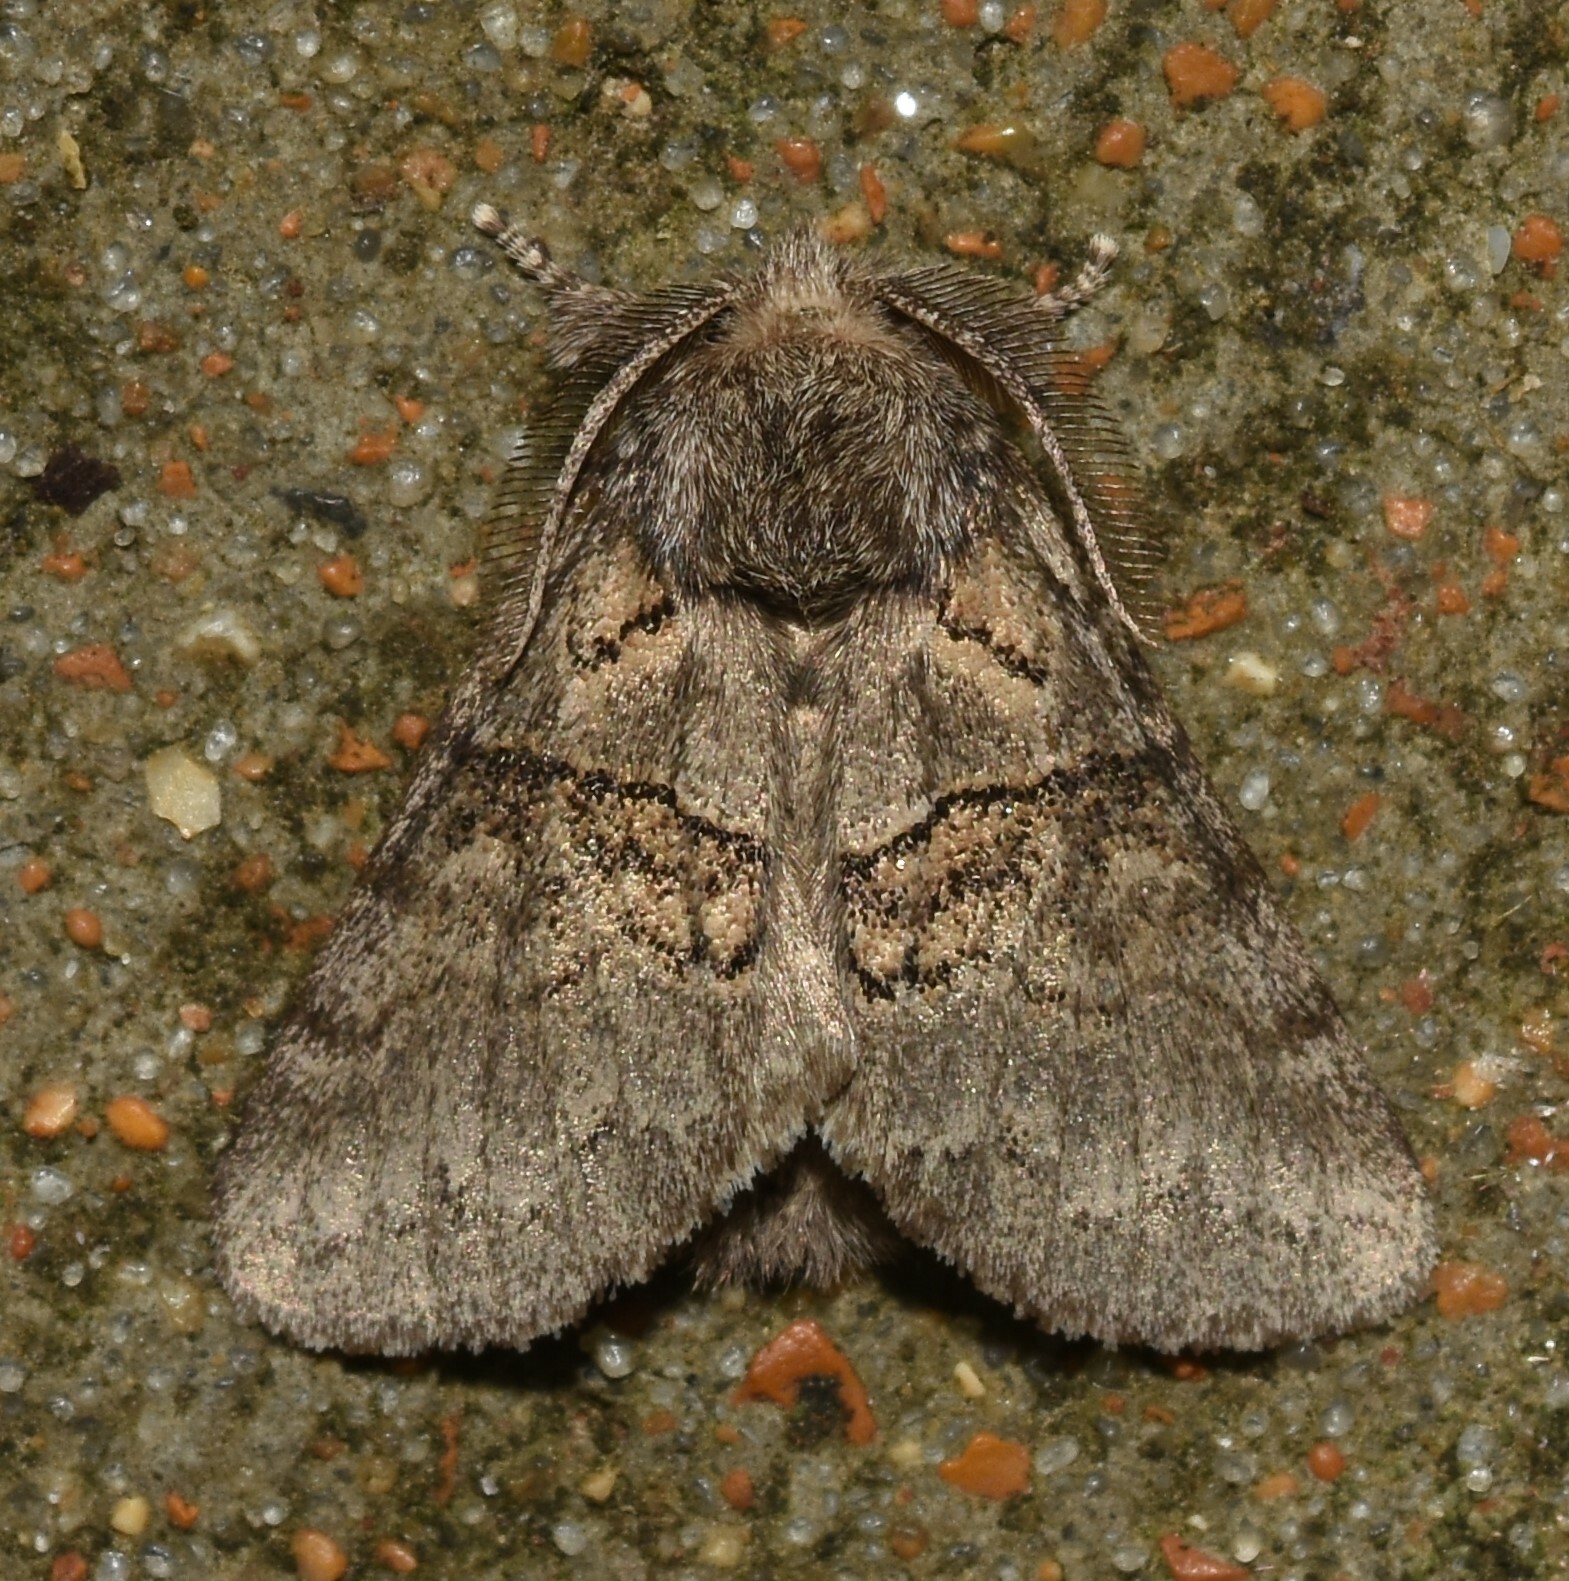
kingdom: Animalia
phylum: Arthropoda
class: Insecta
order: Lepidoptera
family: Notodontidae
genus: Gluphisia
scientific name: Gluphisia septentrionis
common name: Common gluphisia
